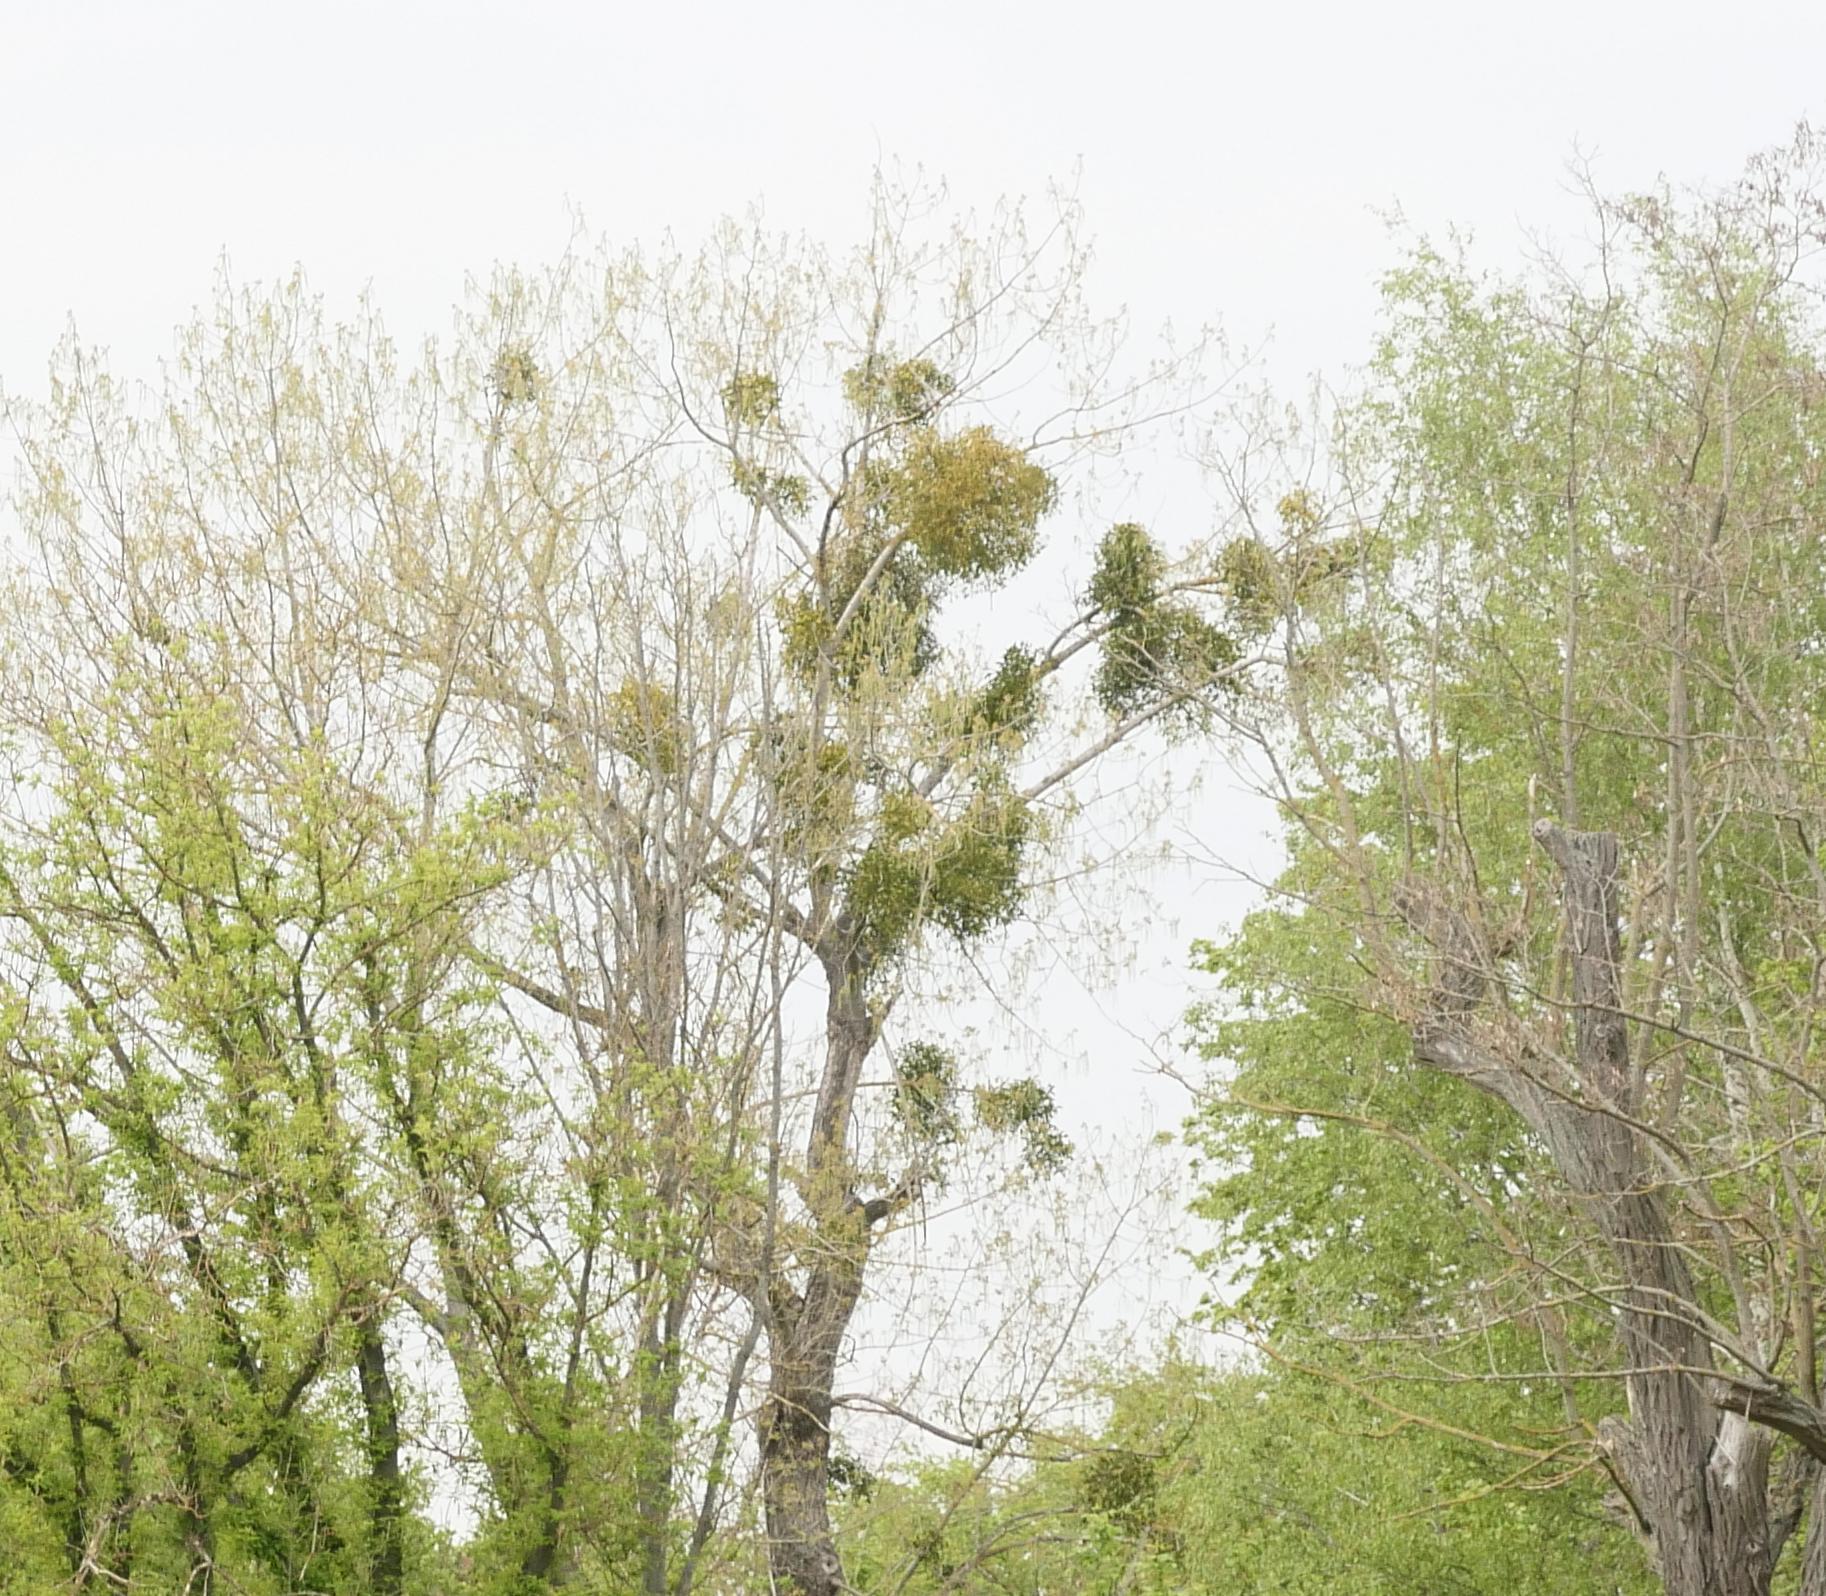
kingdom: Plantae
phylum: Tracheophyta
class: Magnoliopsida
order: Santalales
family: Viscaceae
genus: Viscum
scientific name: Viscum album
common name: Mistletoe
